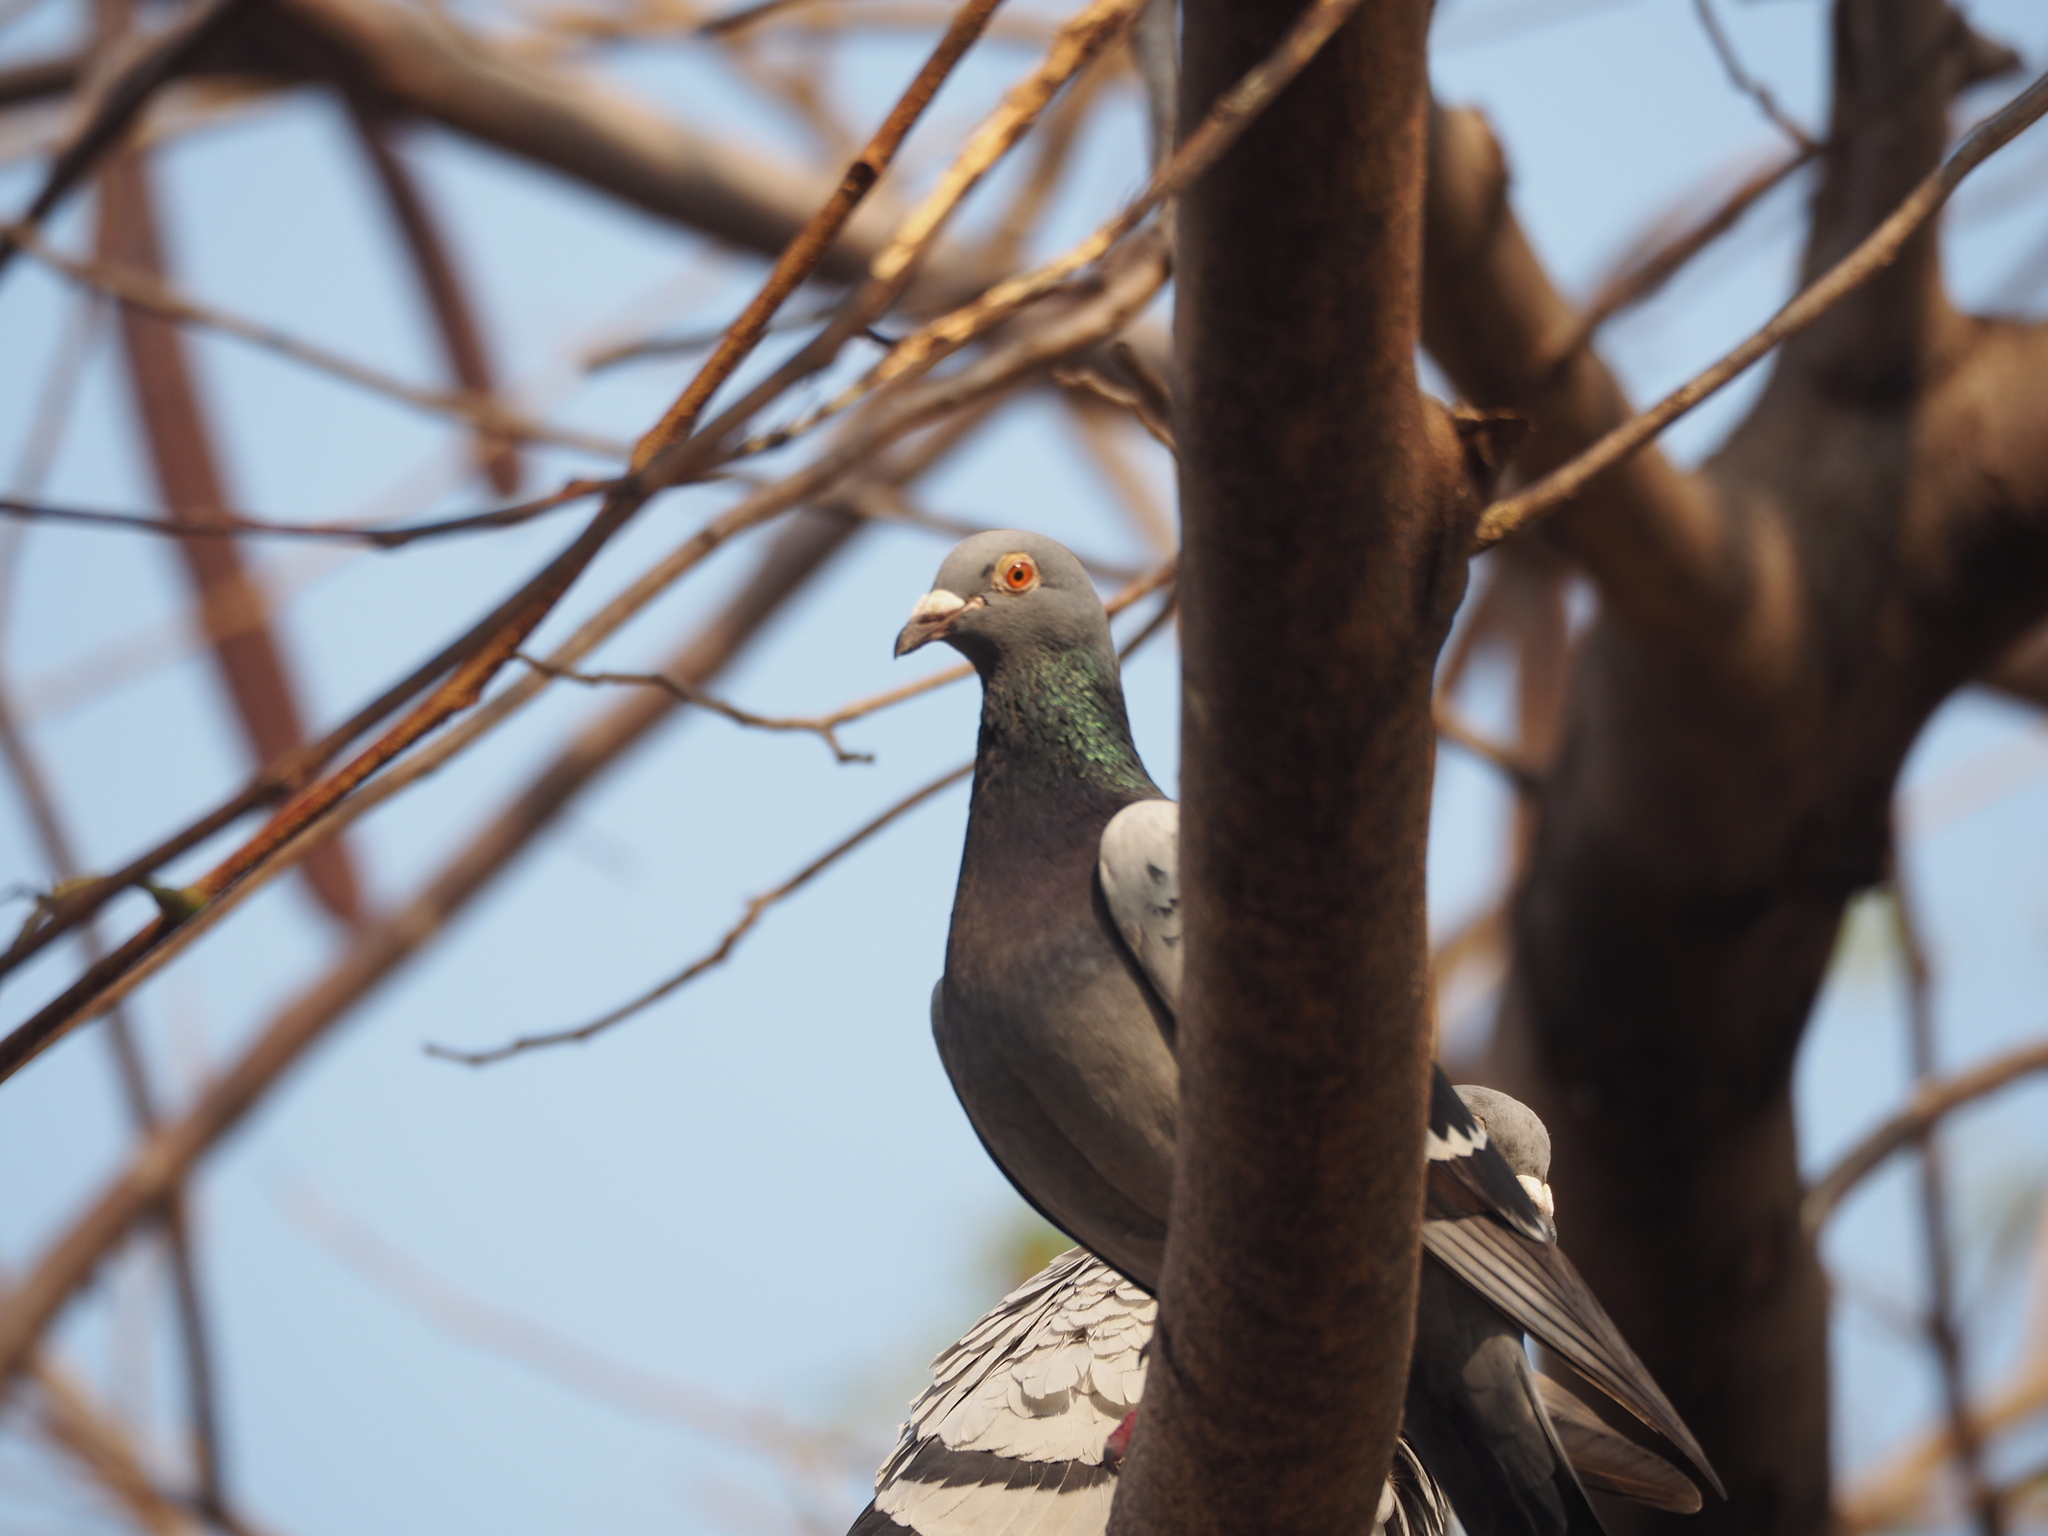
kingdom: Animalia
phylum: Chordata
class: Aves
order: Columbiformes
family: Columbidae
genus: Columba
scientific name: Columba livia
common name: Rock pigeon
